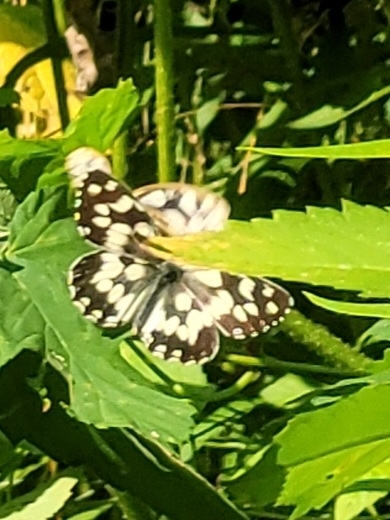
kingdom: Animalia
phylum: Arthropoda
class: Insecta
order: Lepidoptera
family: Nymphalidae
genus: Melanargia
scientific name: Melanargia galathea
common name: Marbled white
